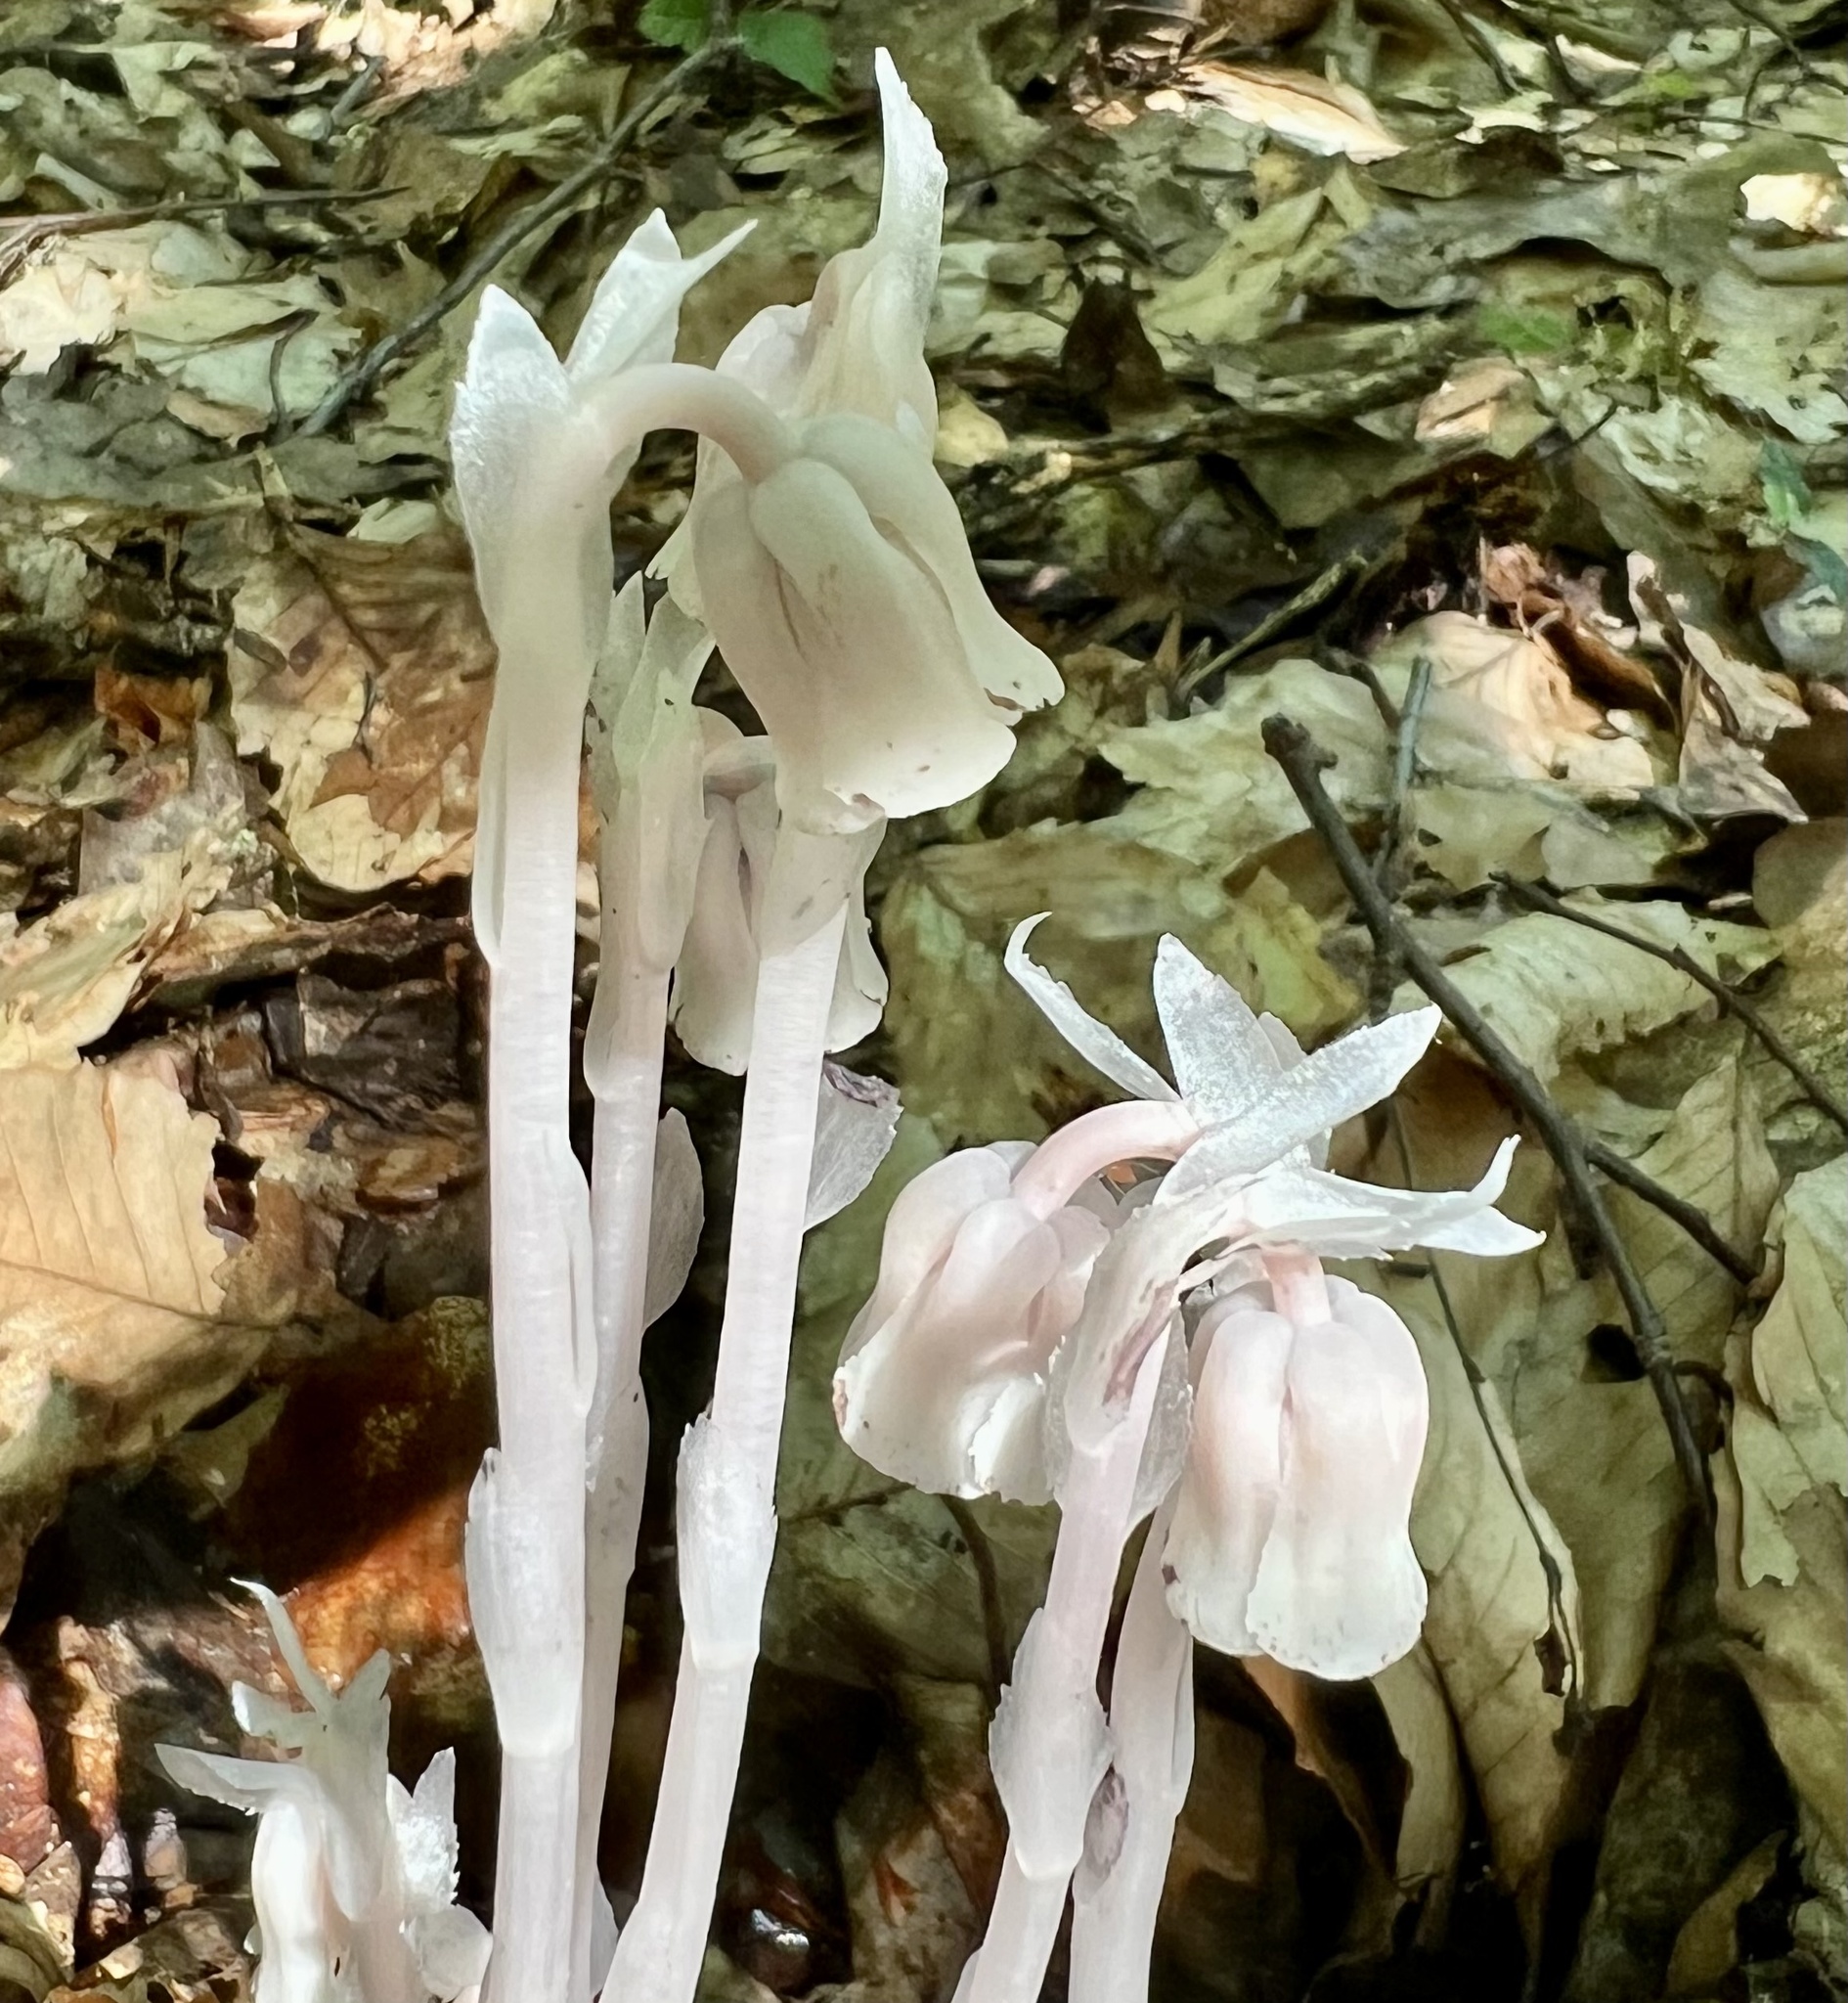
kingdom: Plantae
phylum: Tracheophyta
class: Magnoliopsida
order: Ericales
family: Ericaceae
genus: Monotropa
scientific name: Monotropa uniflora
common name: Convulsion root
